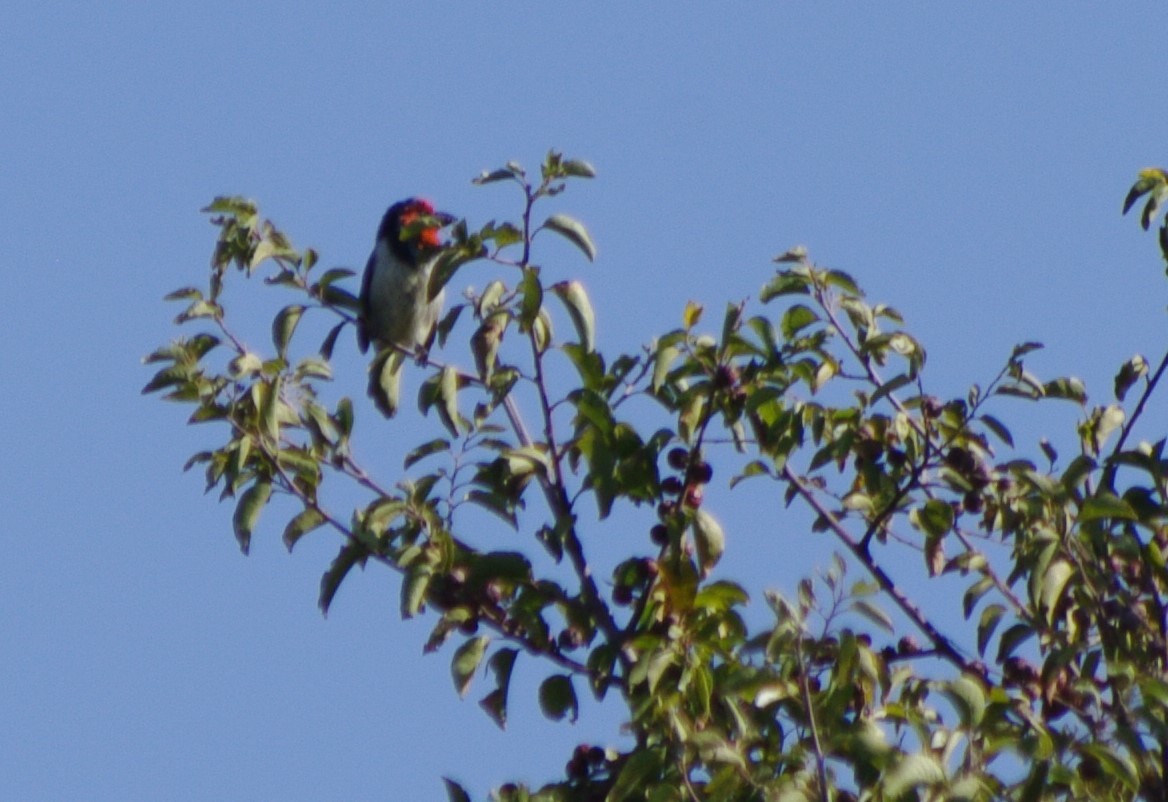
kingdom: Animalia
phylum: Chordata
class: Aves
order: Piciformes
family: Lybiidae
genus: Lybius
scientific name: Lybius torquatus
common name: Black-collared barbet
